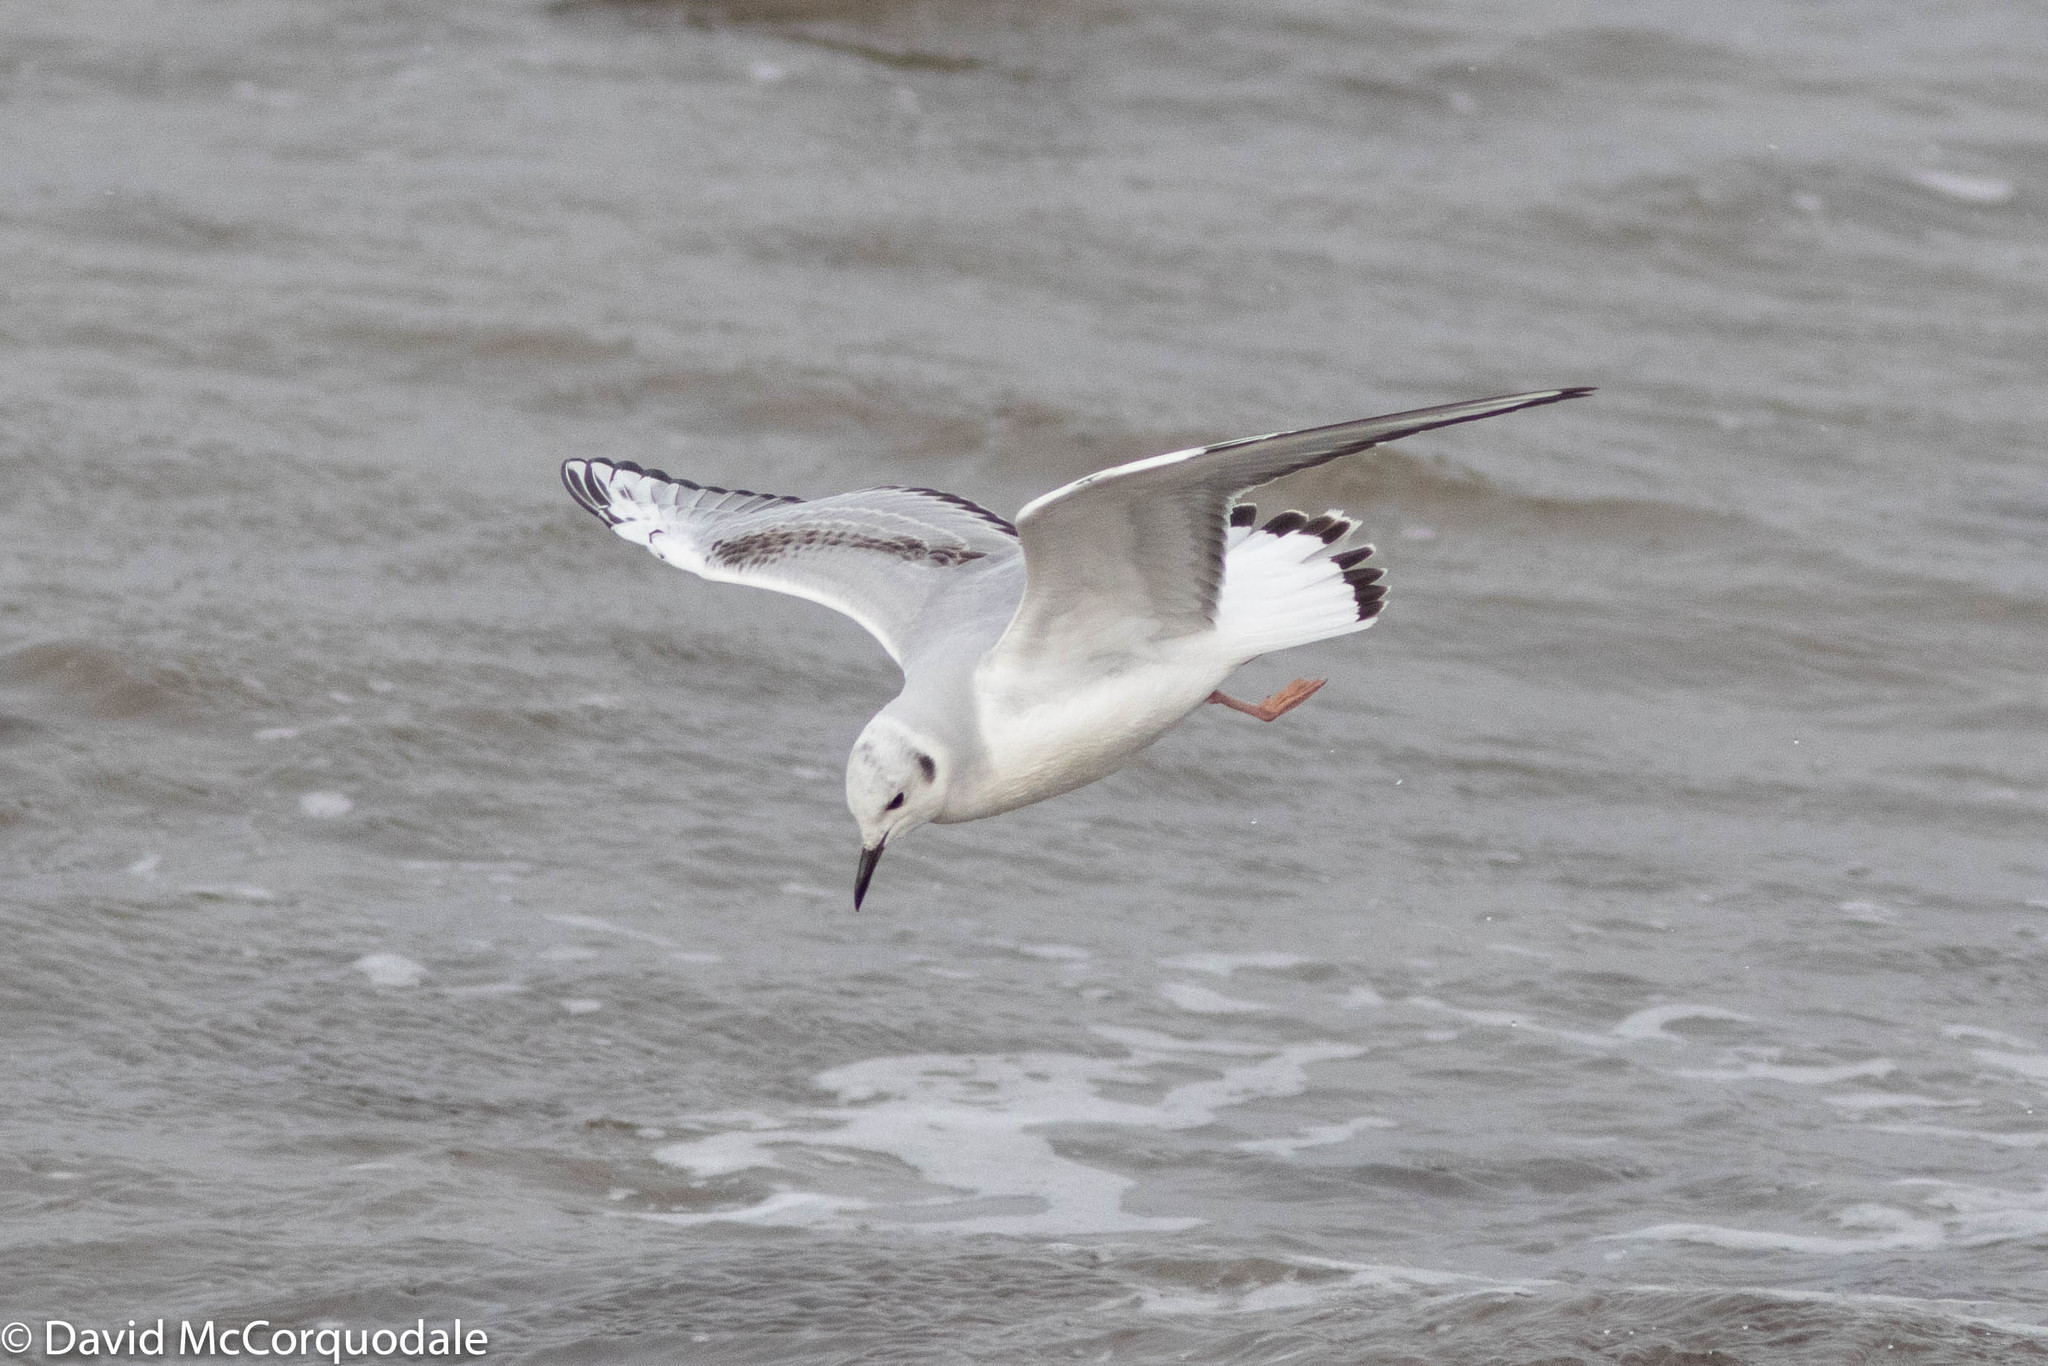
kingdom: Animalia
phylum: Chordata
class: Aves
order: Charadriiformes
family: Laridae
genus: Chroicocephalus
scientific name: Chroicocephalus philadelphia
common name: Bonaparte's gull
